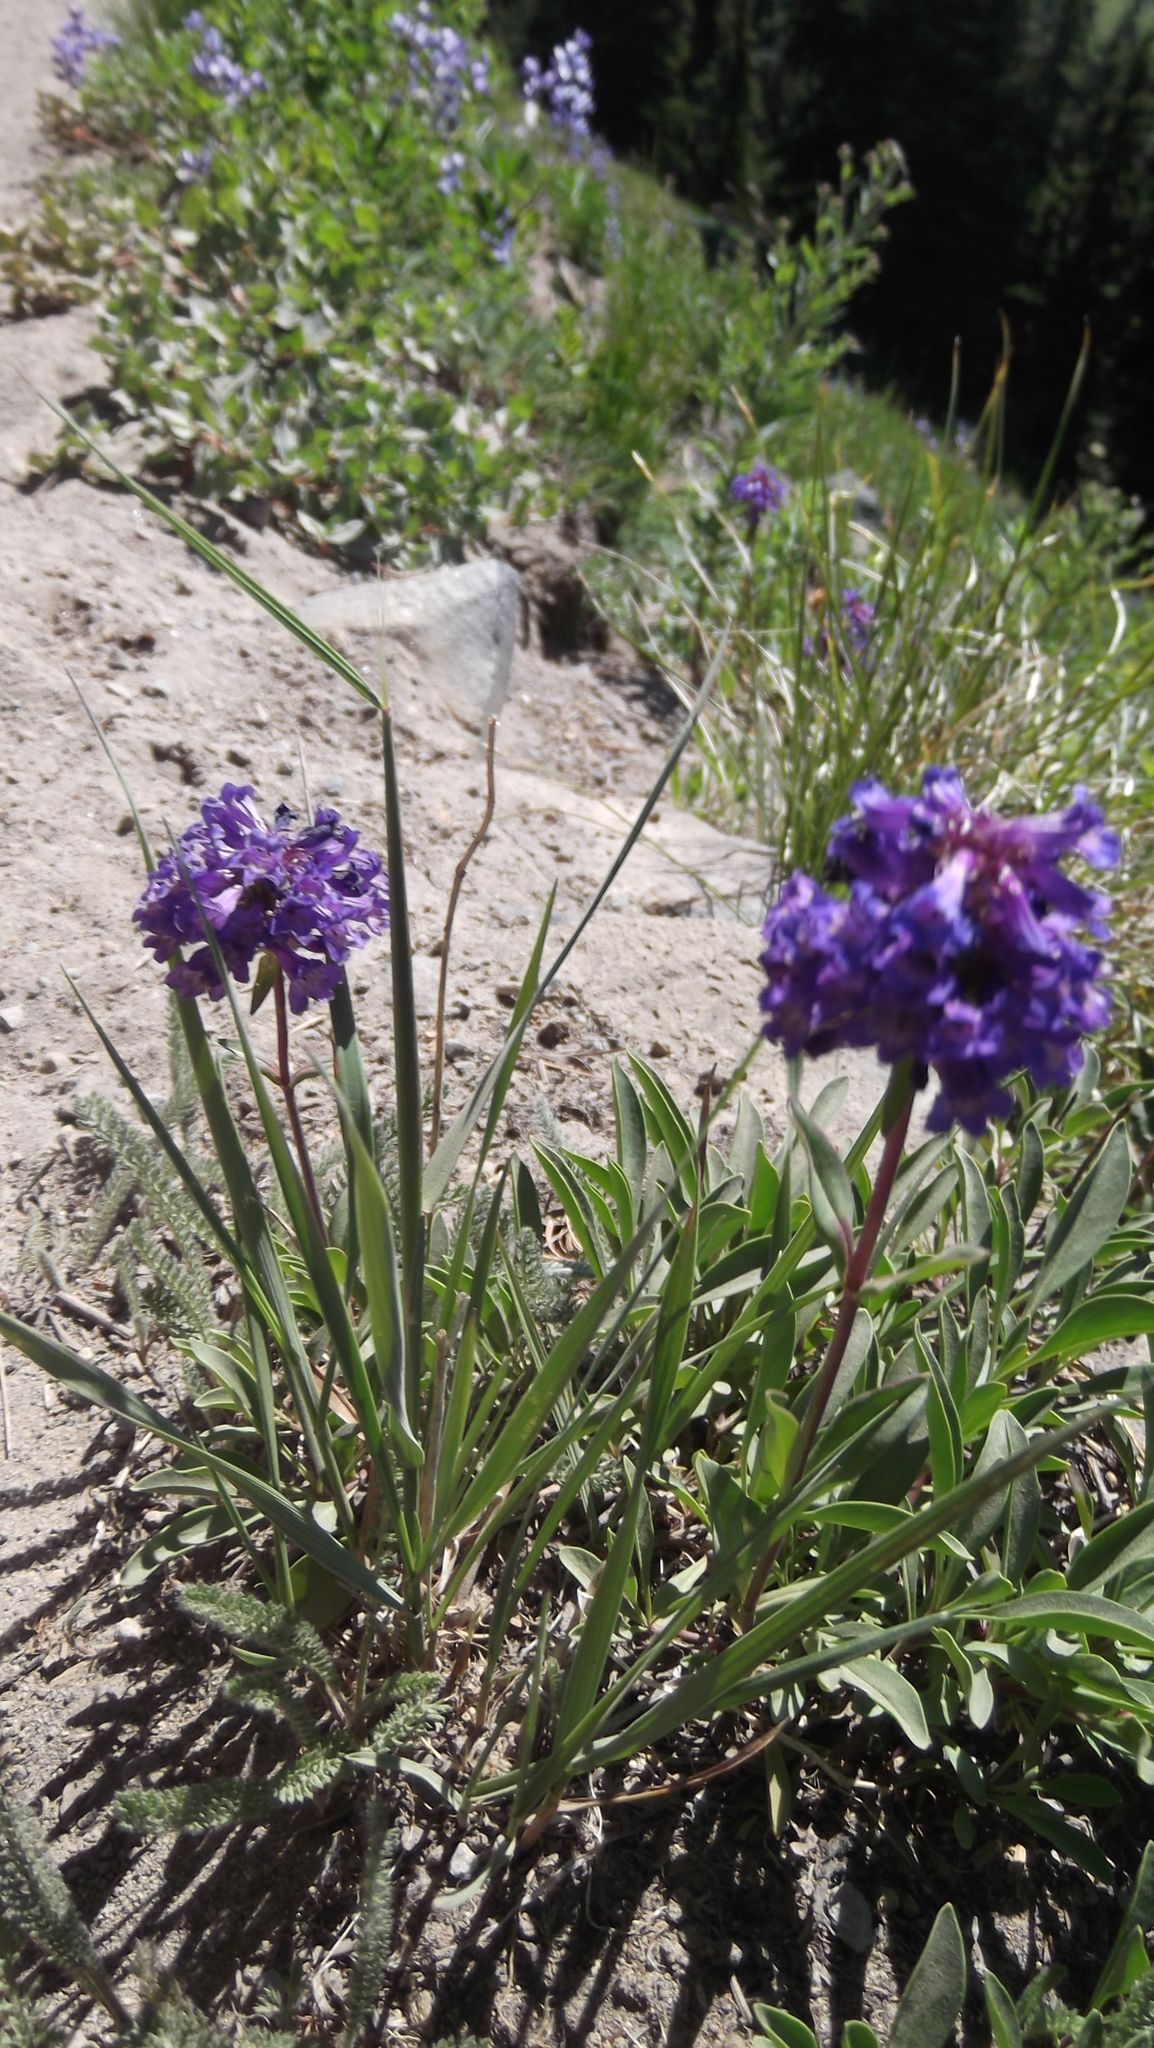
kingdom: Plantae
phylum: Tracheophyta
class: Magnoliopsida
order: Lamiales
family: Plantaginaceae
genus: Penstemon
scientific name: Penstemon procerus
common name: Small-flower penstemon
